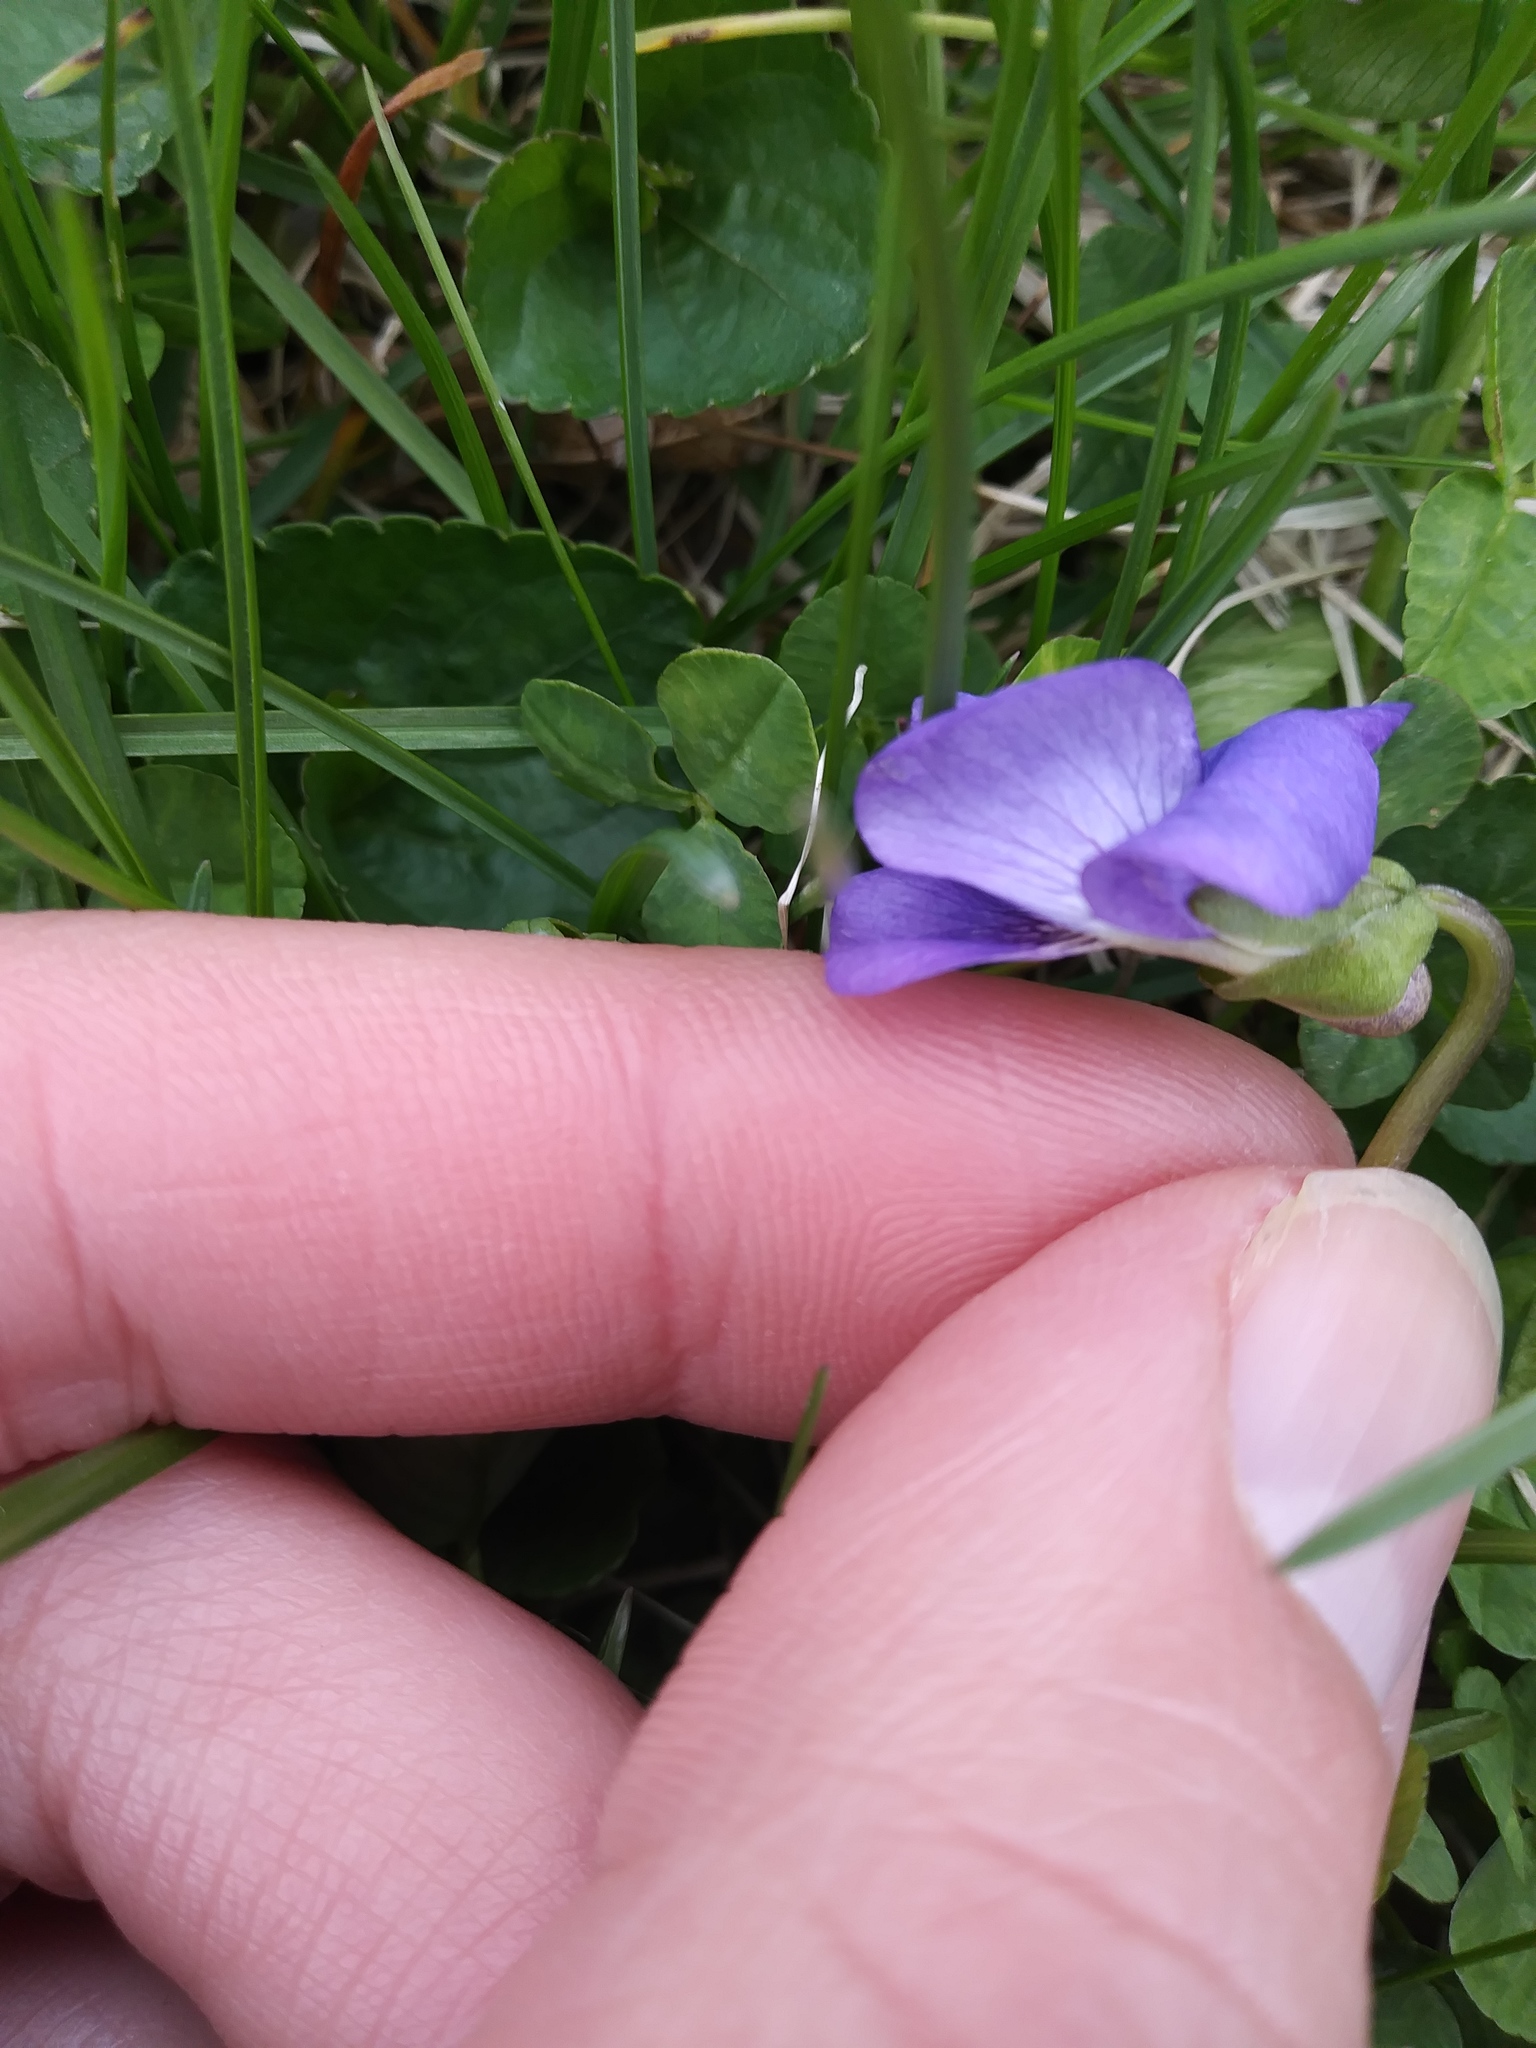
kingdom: Plantae
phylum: Tracheophyta
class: Magnoliopsida
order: Malpighiales
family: Violaceae
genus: Viola
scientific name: Viola sororia
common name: Dooryard violet
